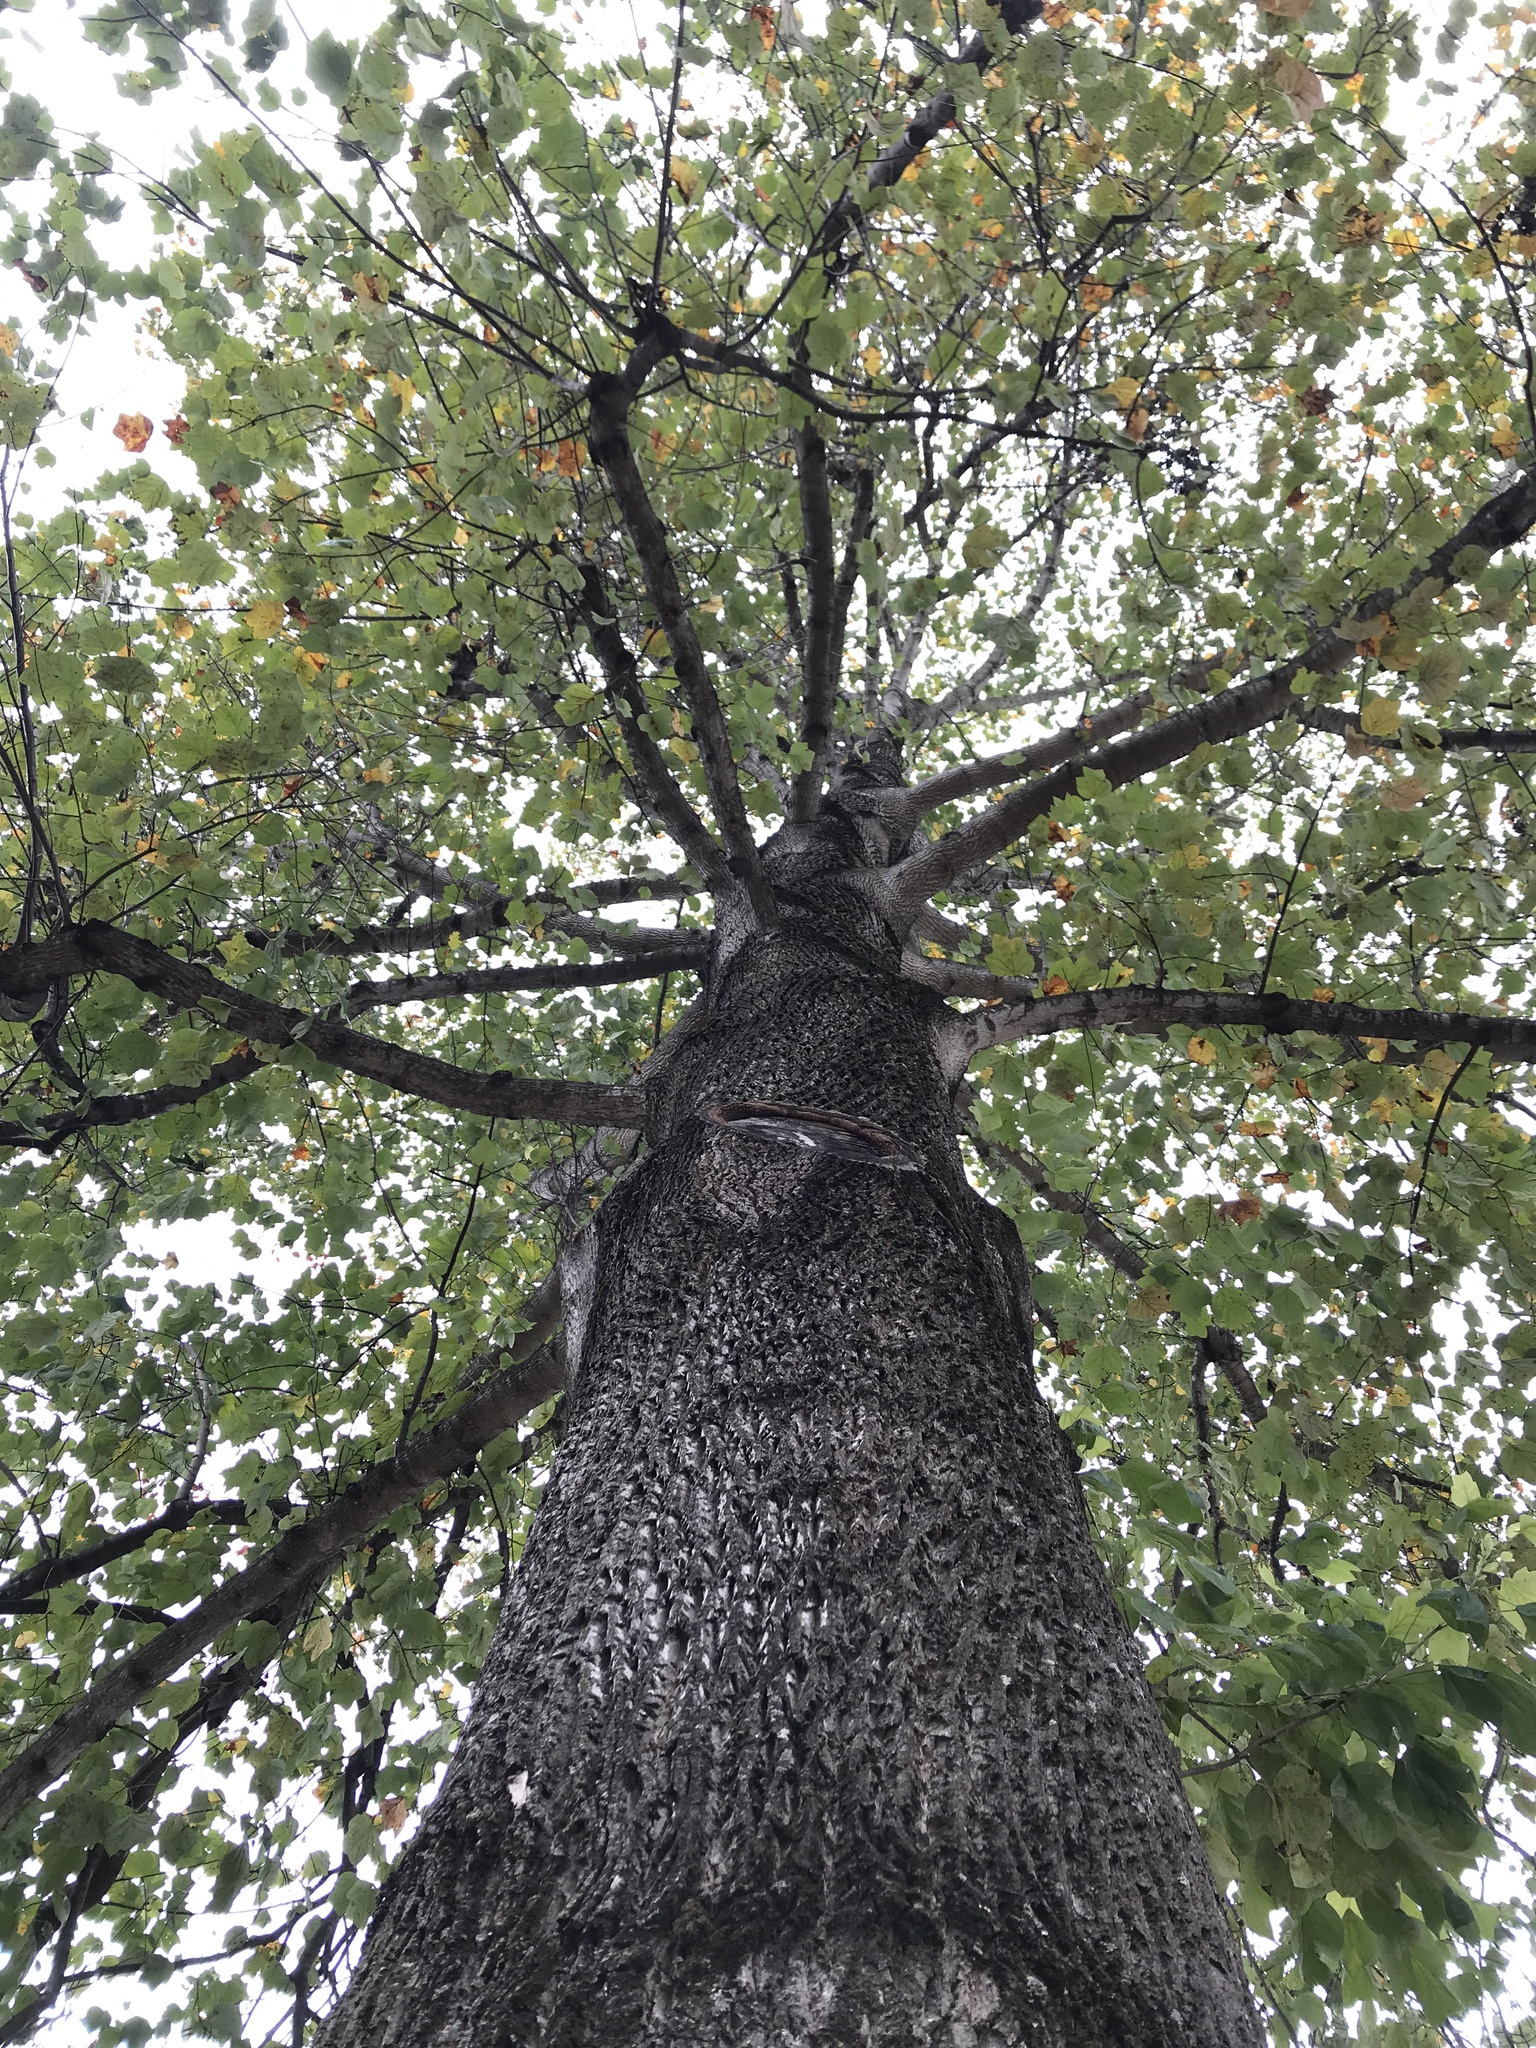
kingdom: Plantae
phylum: Tracheophyta
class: Magnoliopsida
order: Magnoliales
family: Magnoliaceae
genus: Liriodendron
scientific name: Liriodendron tulipifera
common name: Tulip tree
